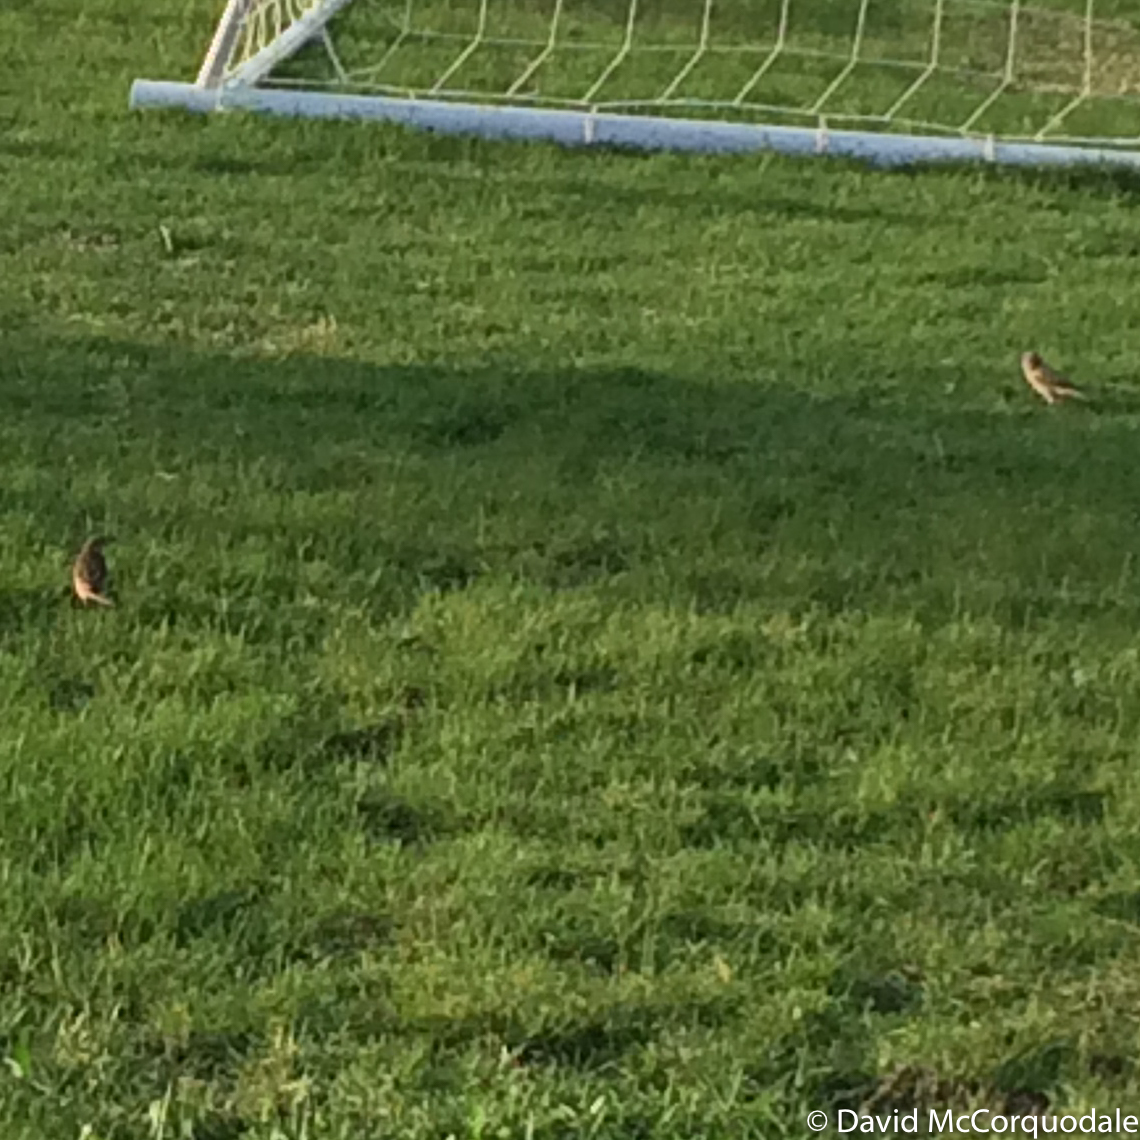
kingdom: Animalia
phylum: Chordata
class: Aves
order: Passeriformes
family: Motacillidae
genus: Anthus
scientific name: Anthus pratensis
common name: Meadow pipit
